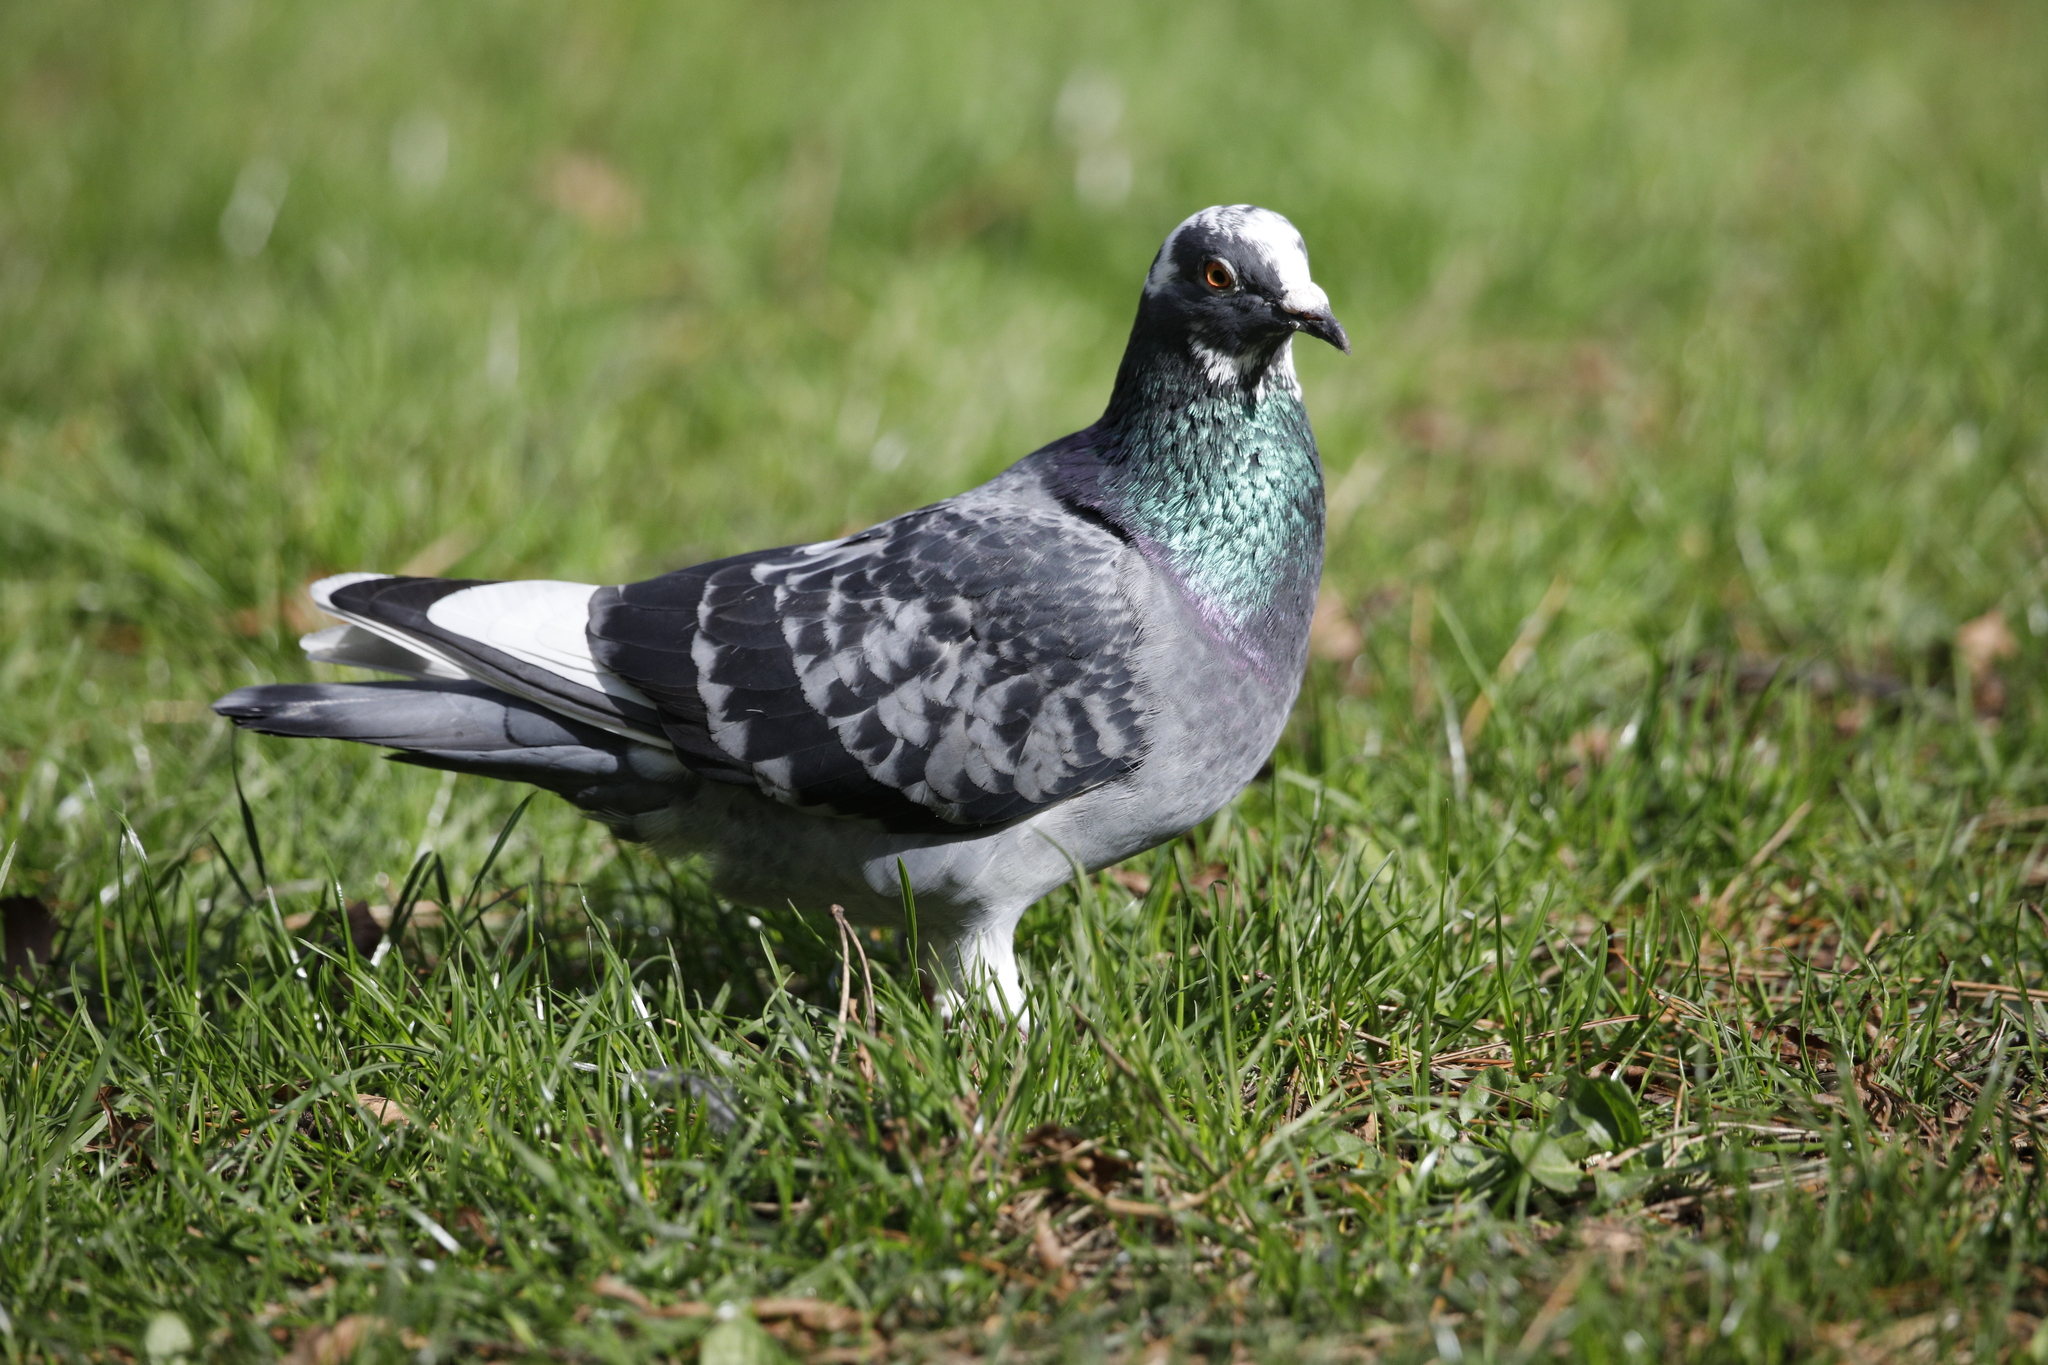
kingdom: Animalia
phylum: Chordata
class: Aves
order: Columbiformes
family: Columbidae
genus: Columba
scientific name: Columba livia
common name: Rock pigeon
